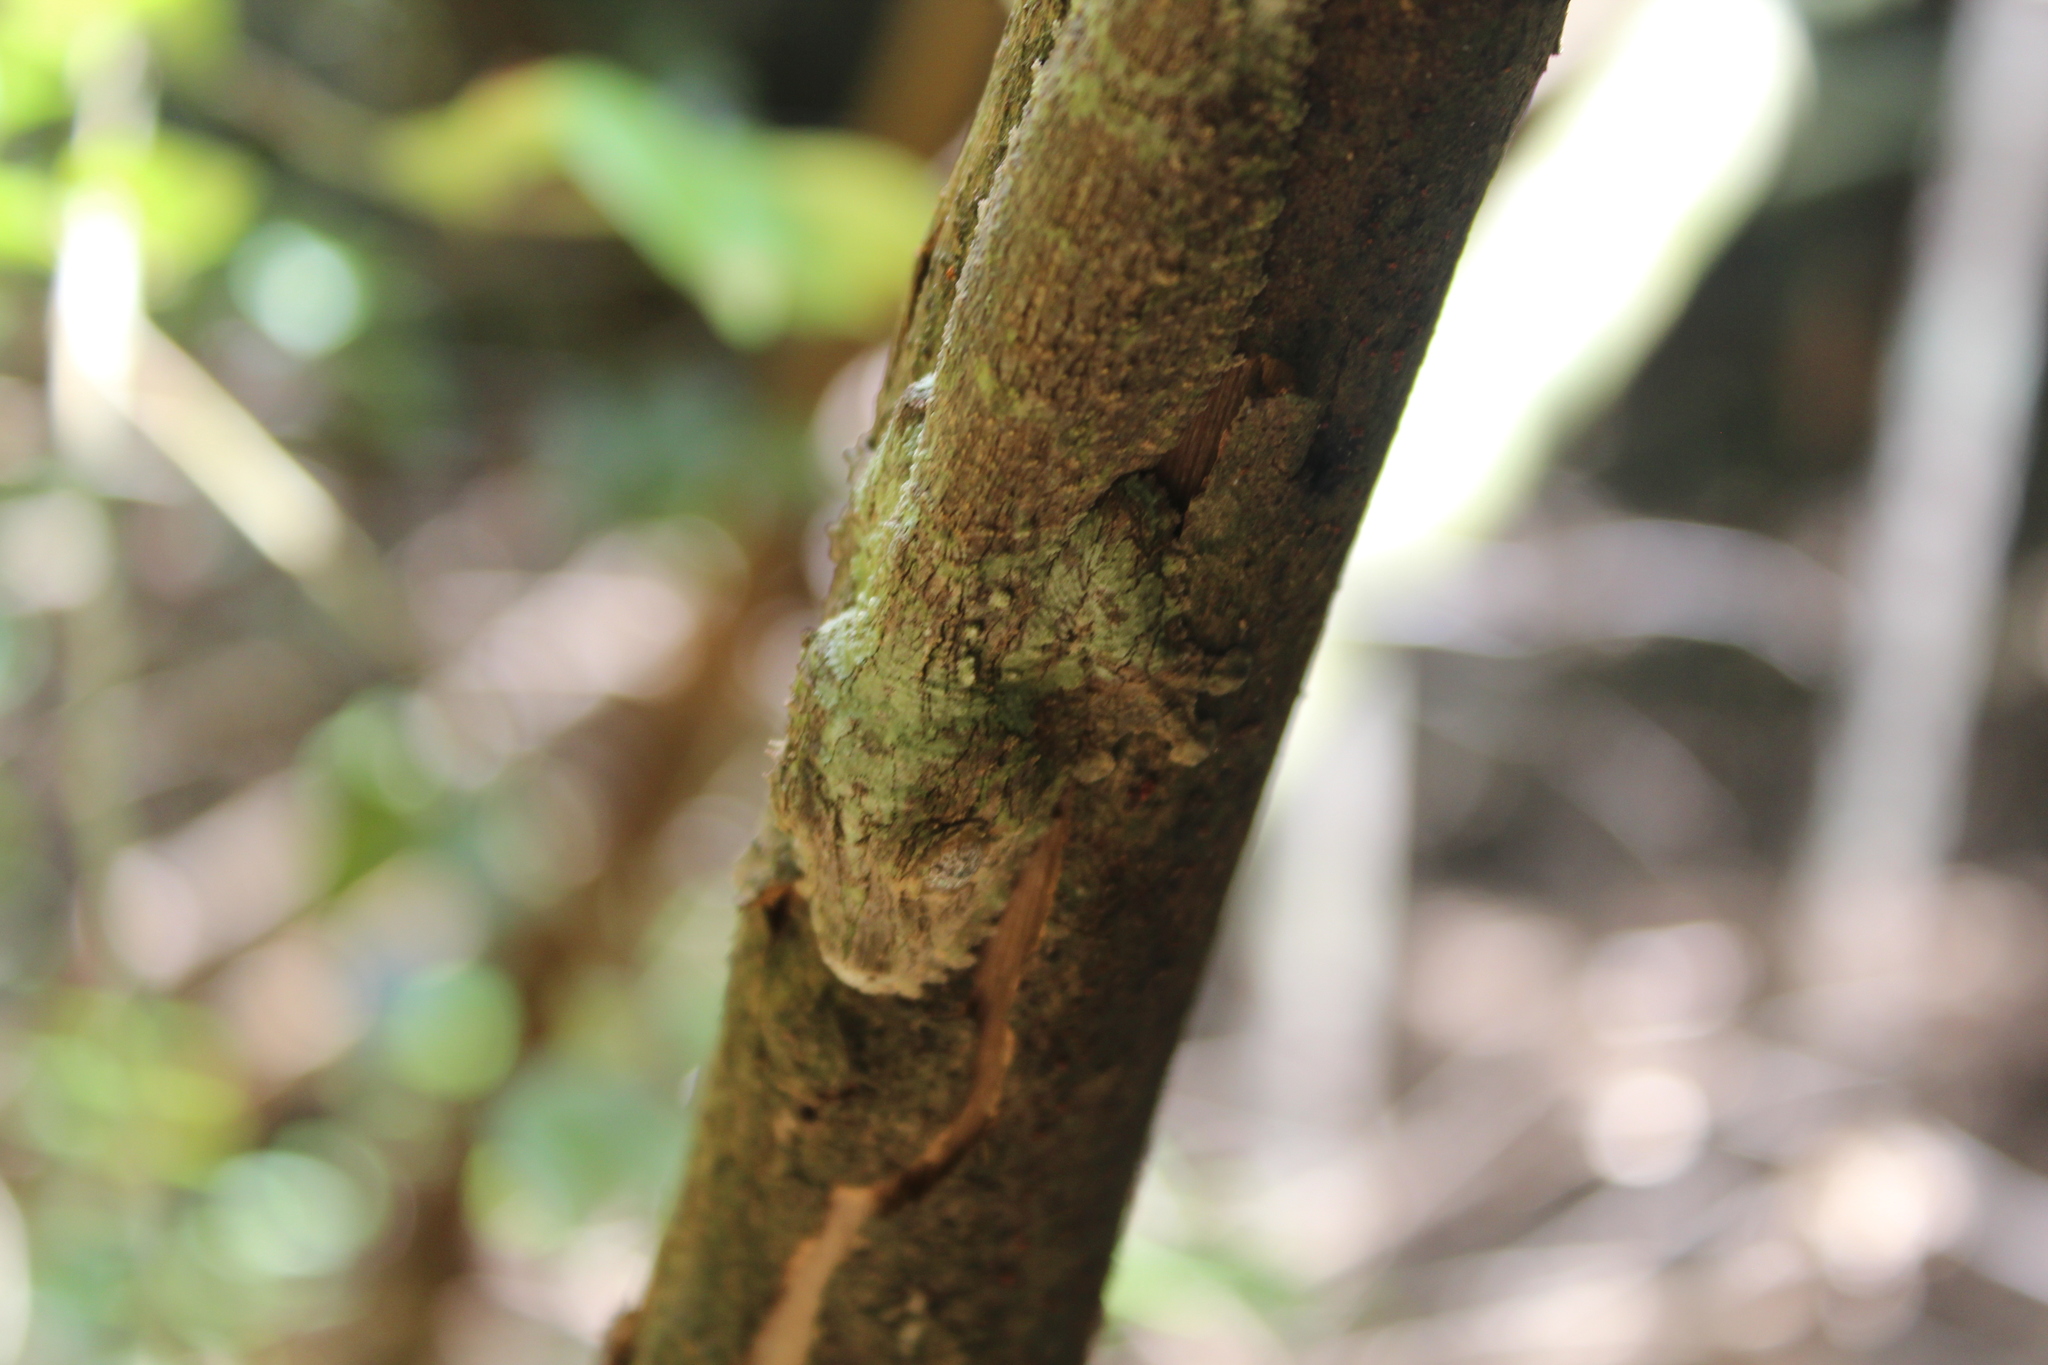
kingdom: Animalia
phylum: Chordata
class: Squamata
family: Gekkonidae
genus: Uroplatus
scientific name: Uroplatus sikorae
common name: Southern flat-tail gecko
